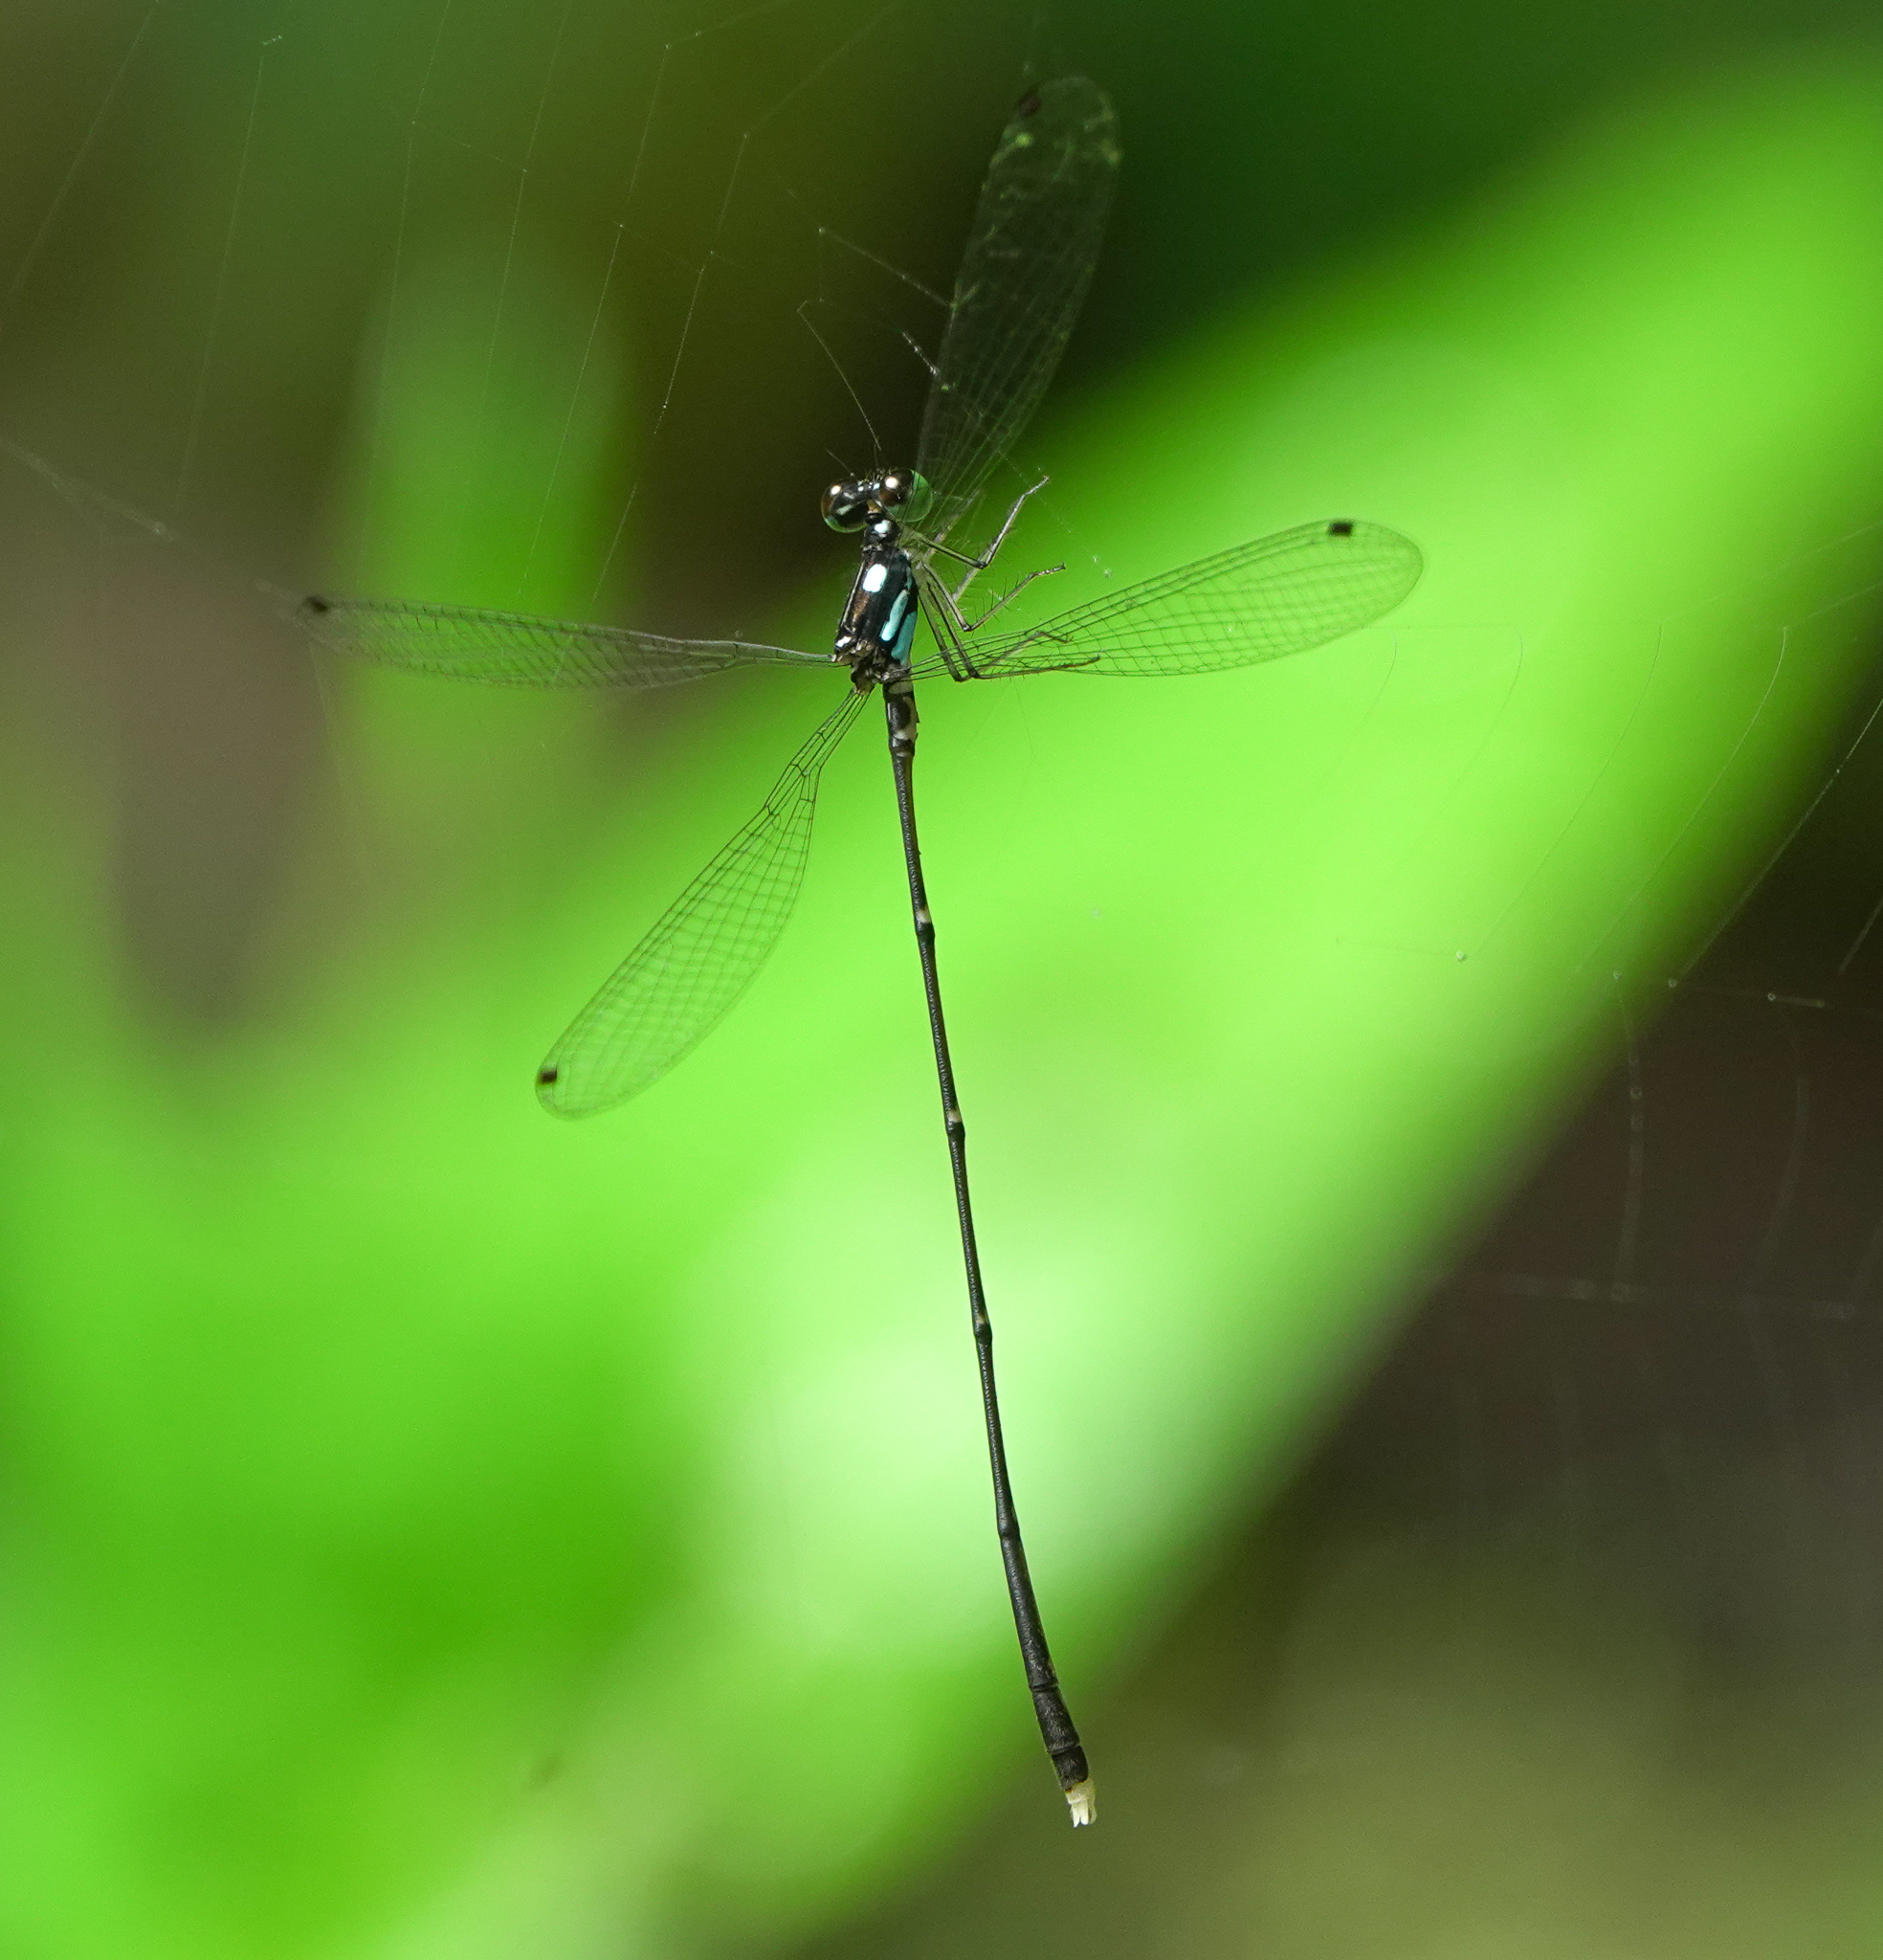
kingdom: Animalia
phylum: Arthropoda
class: Insecta
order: Odonata
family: Platycnemididae
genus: Coeliccia
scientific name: Coeliccia bimaculata
